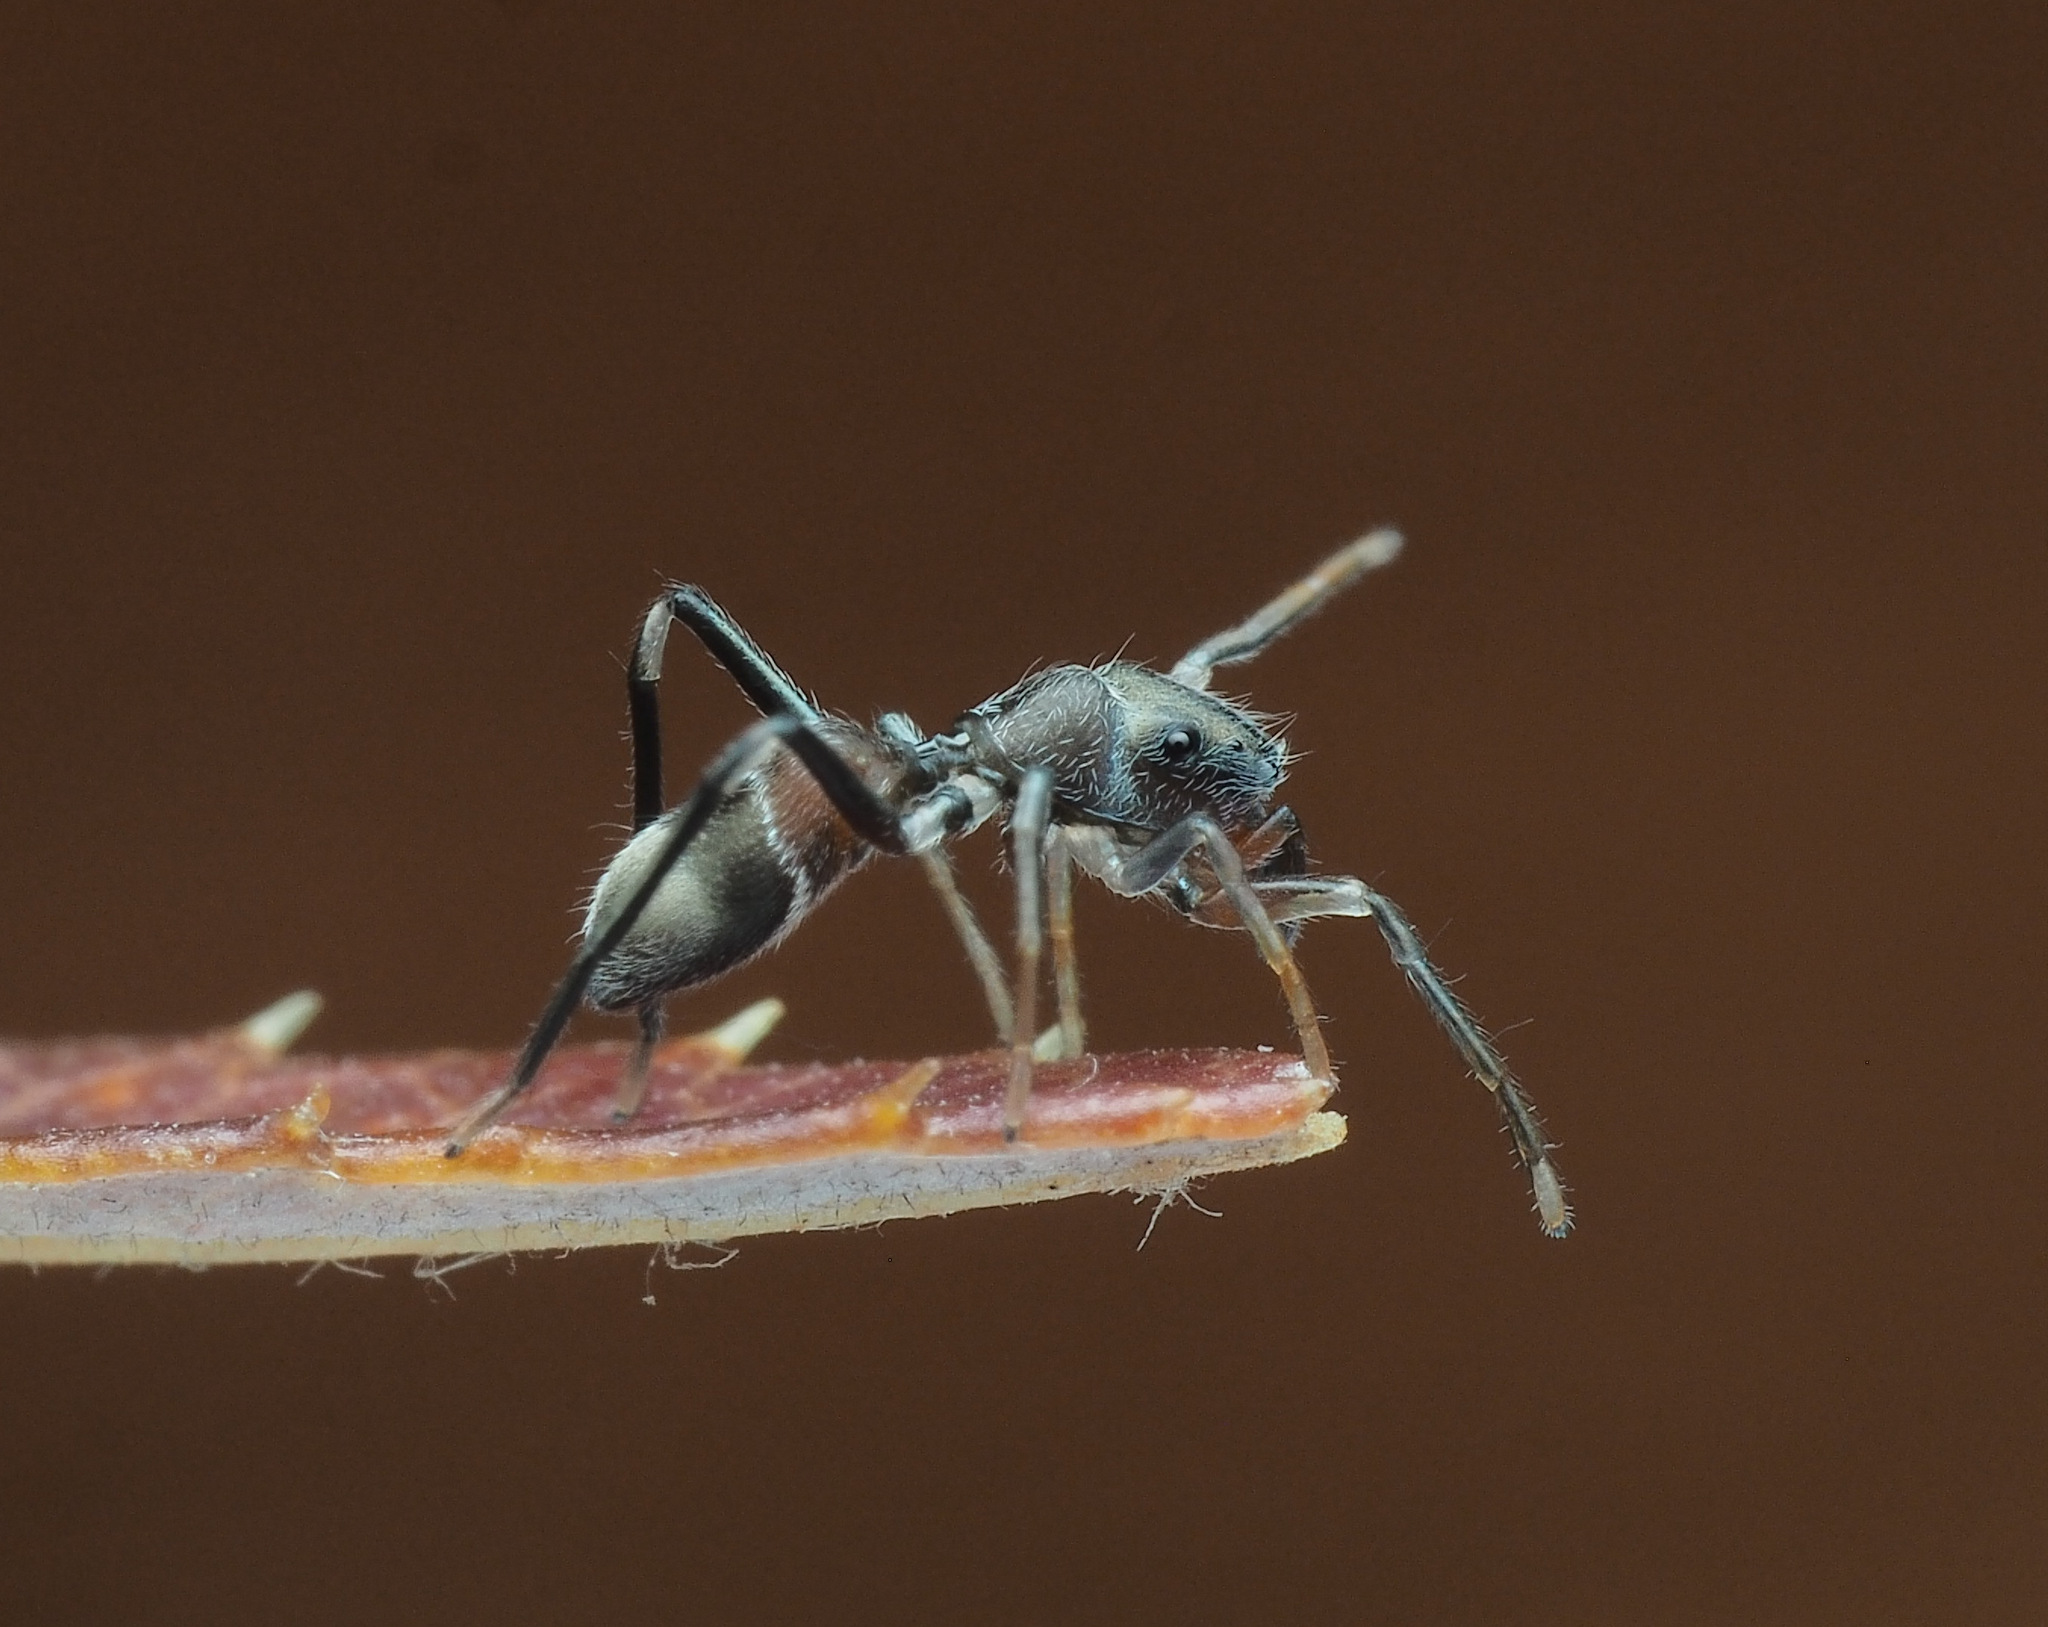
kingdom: Animalia
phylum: Arthropoda
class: Arachnida
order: Araneae
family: Salticidae
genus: Myrmarachne
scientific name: Myrmarachne
